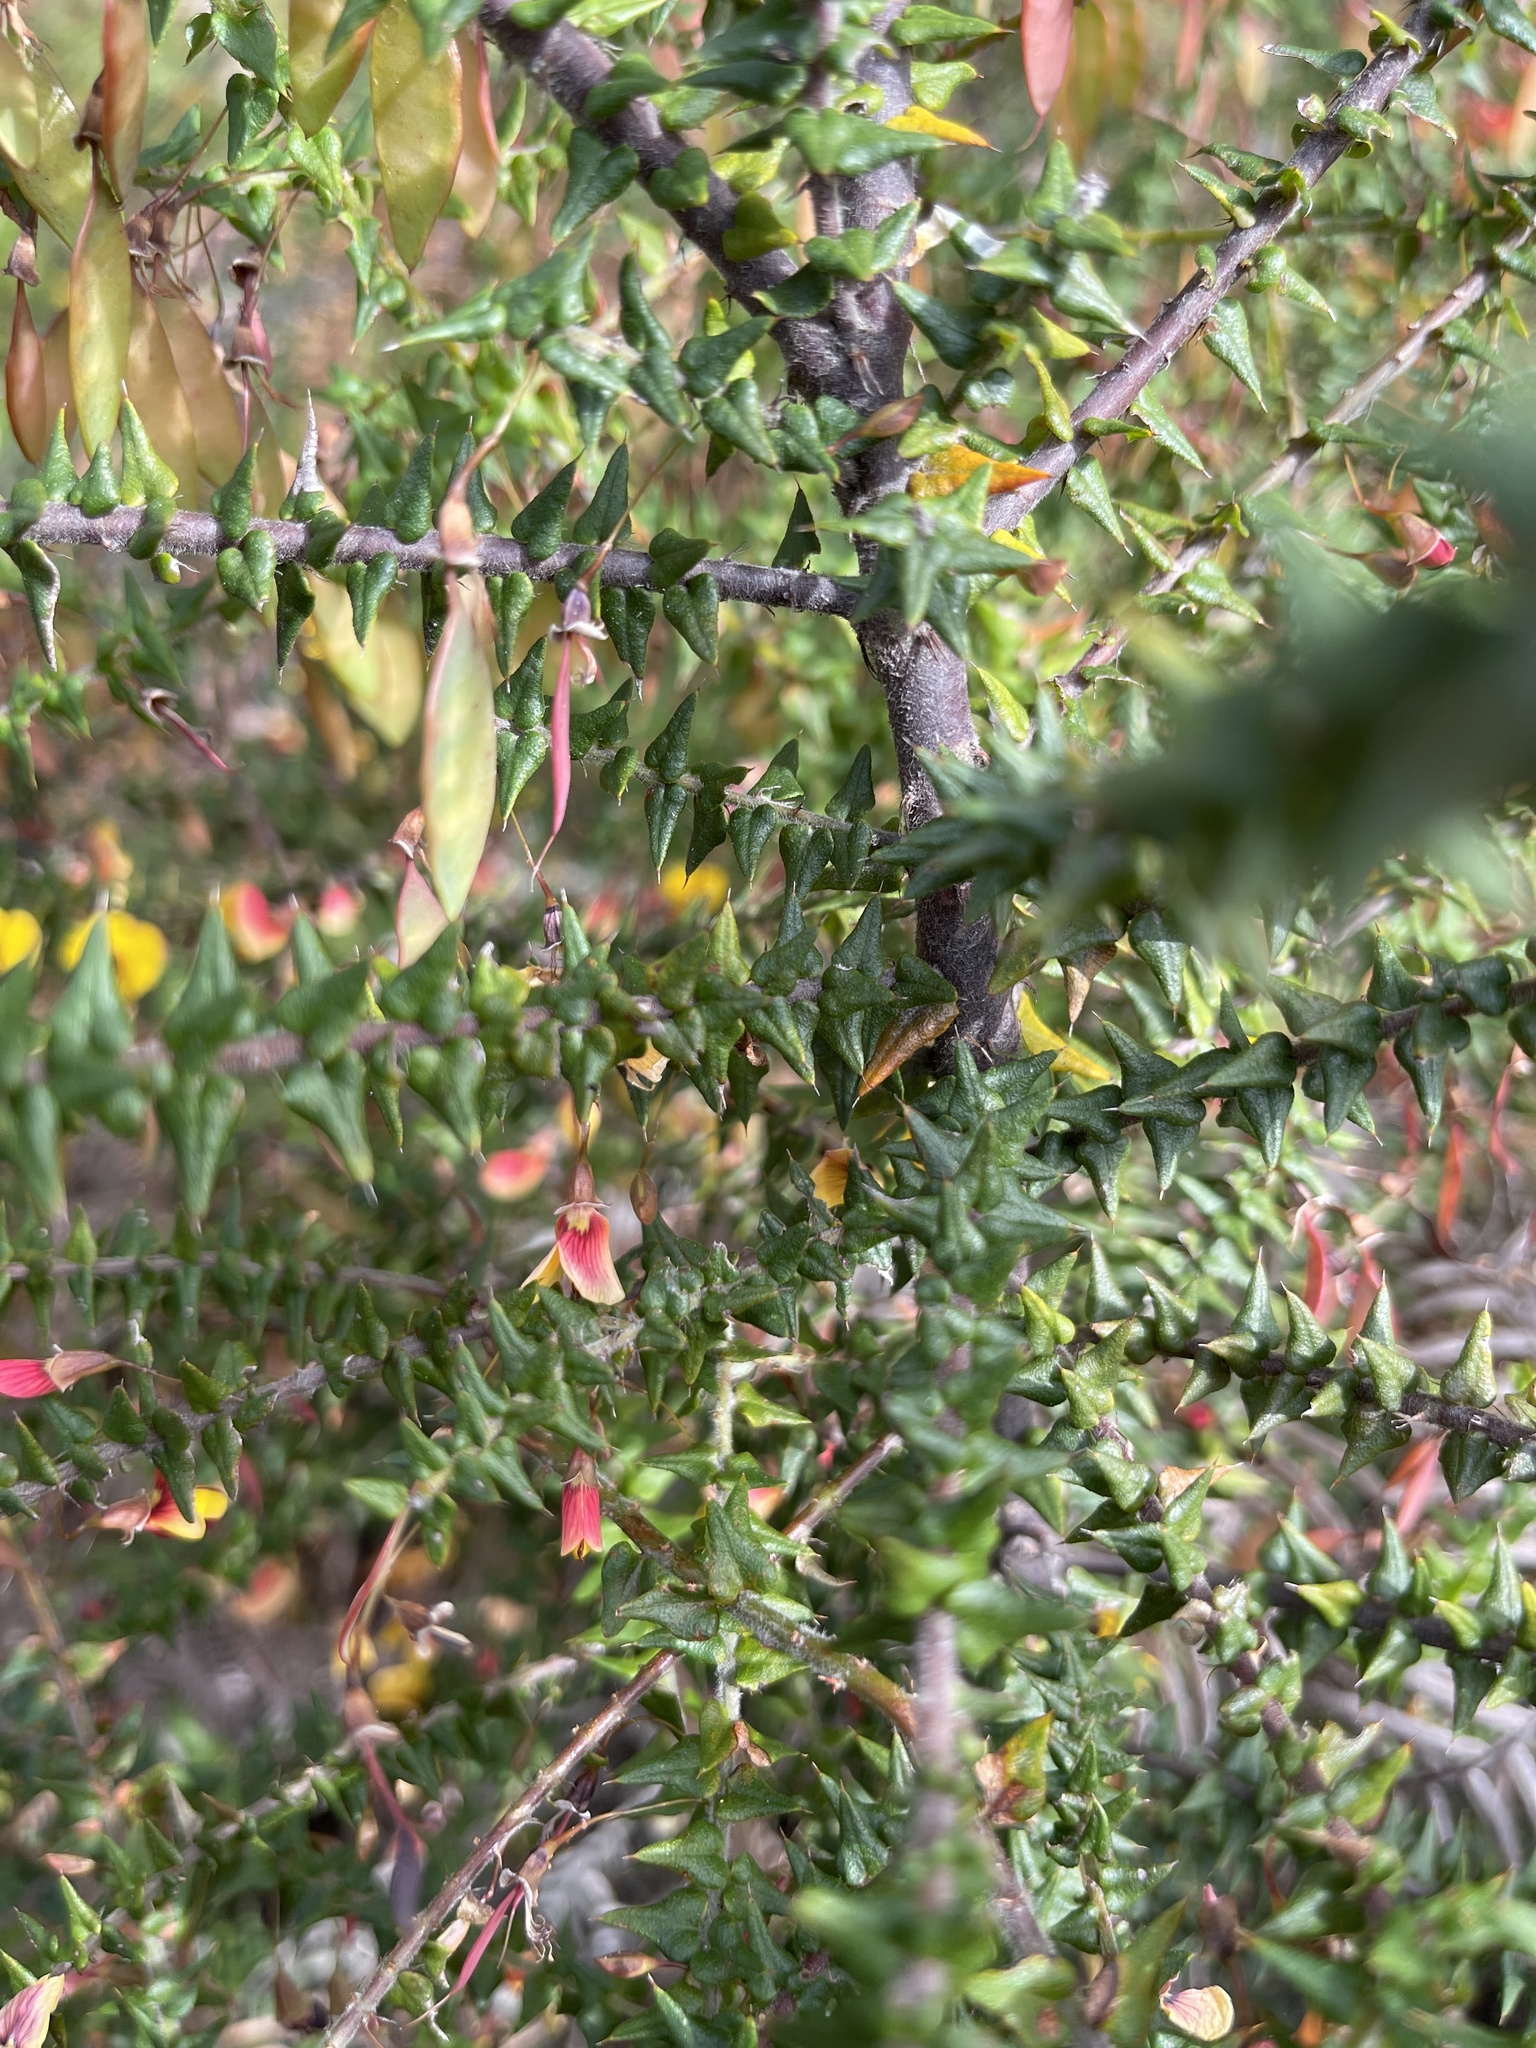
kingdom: Plantae
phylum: Tracheophyta
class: Magnoliopsida
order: Fabales
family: Fabaceae
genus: Bossiaea
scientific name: Bossiaea cinerea
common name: Showy bossiaea
